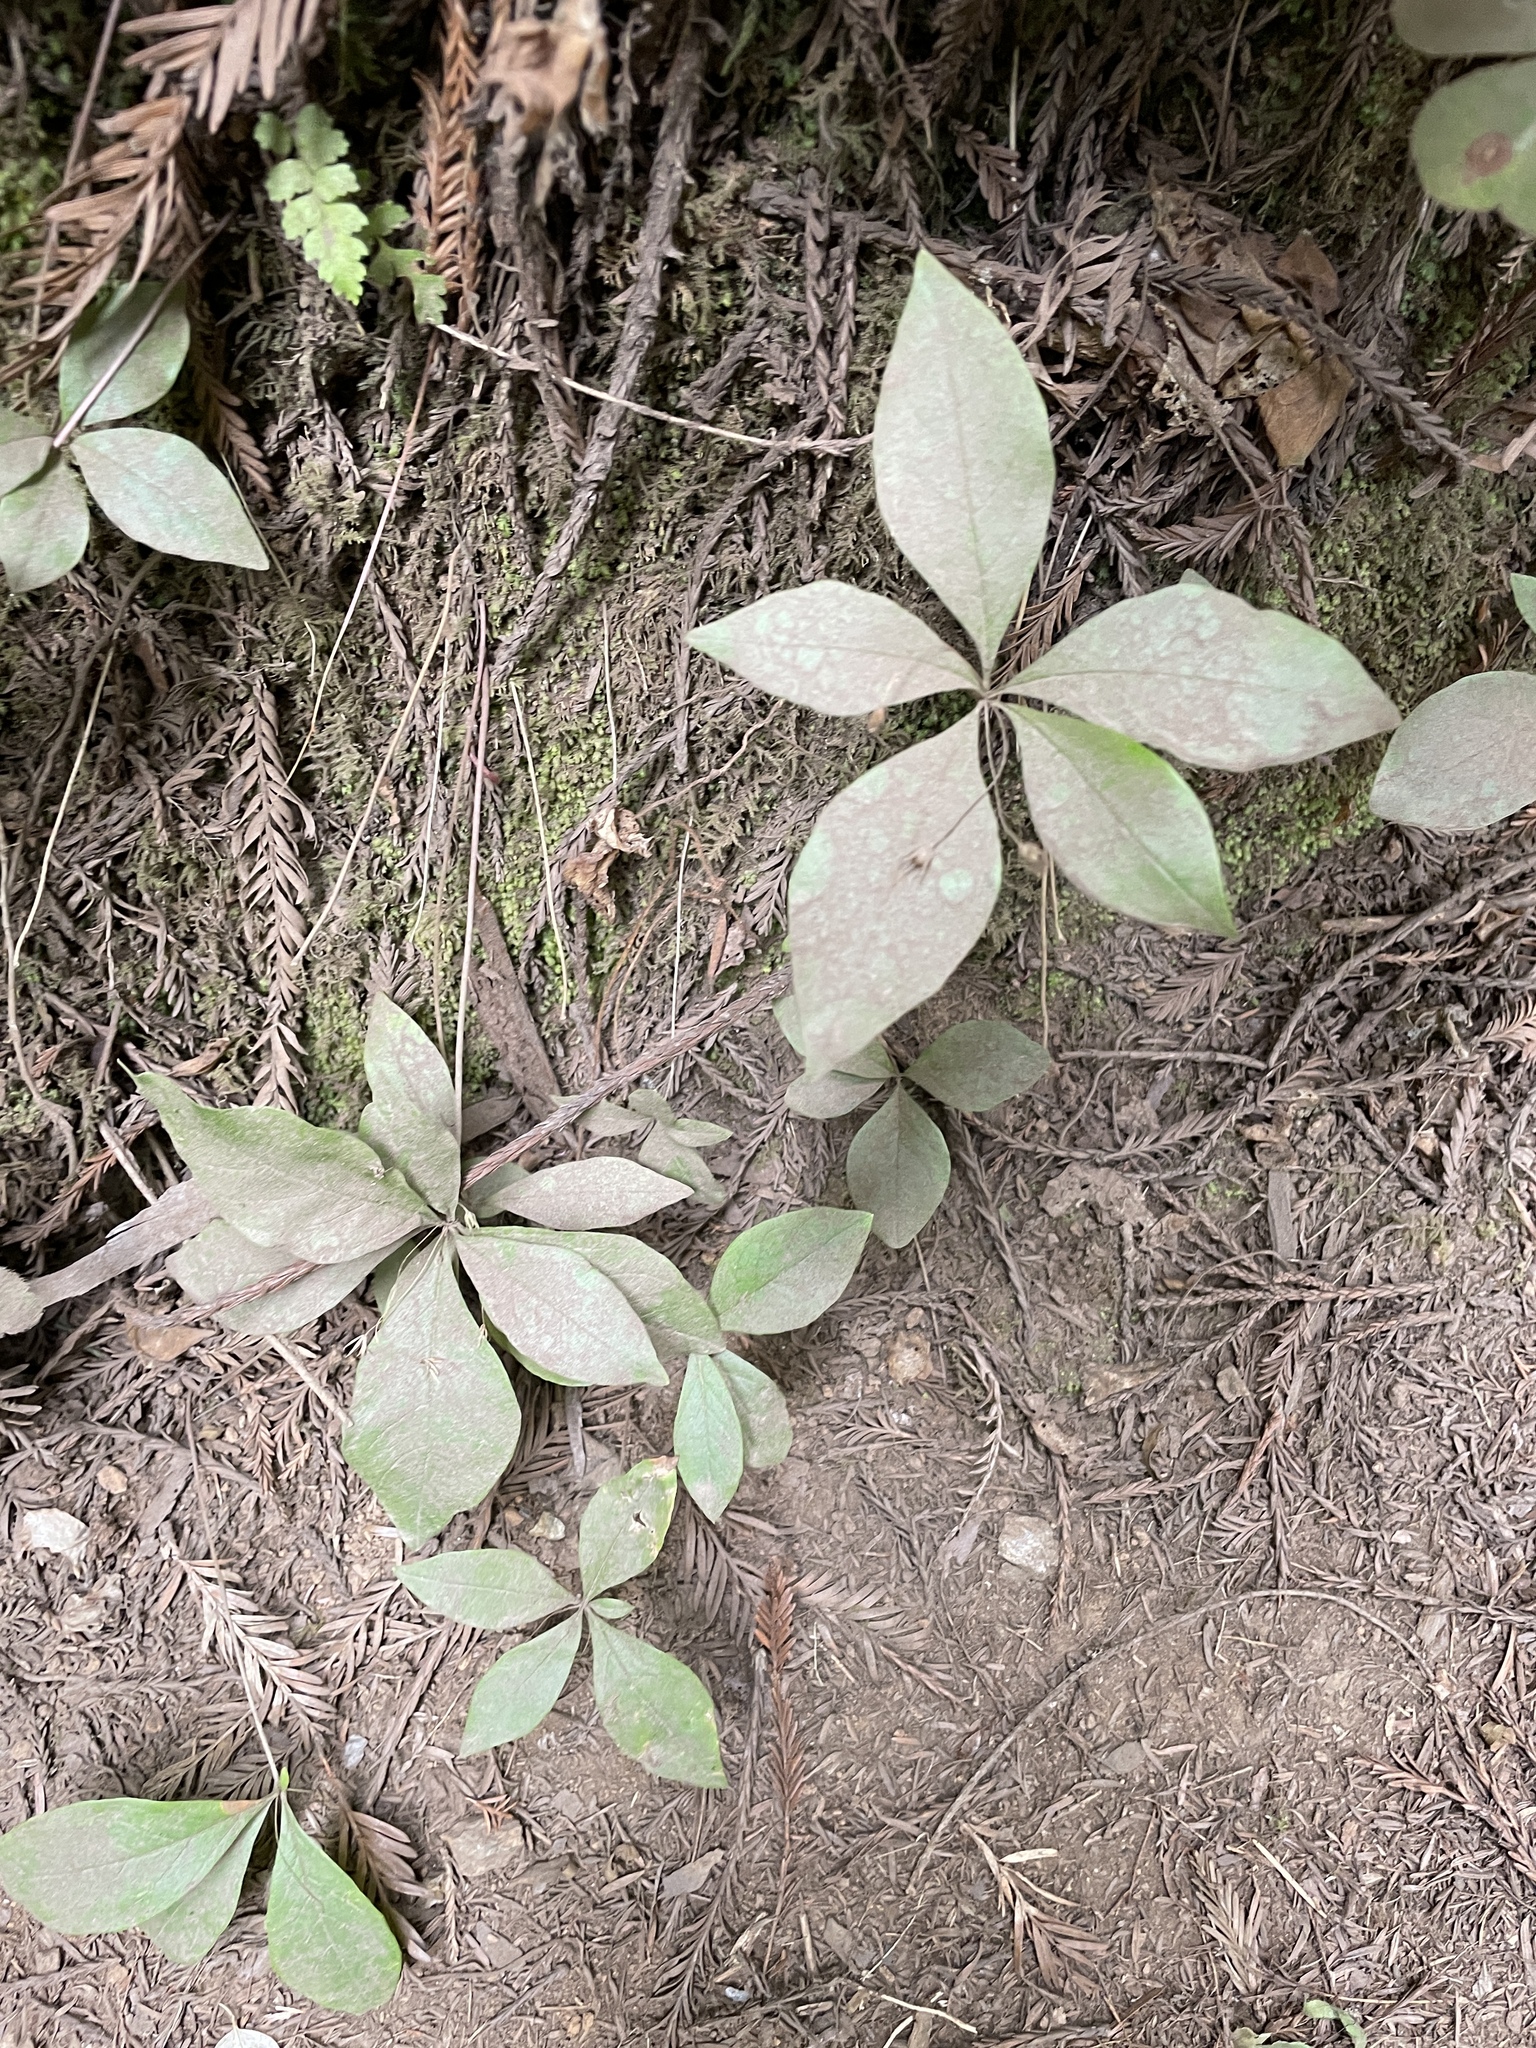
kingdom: Plantae
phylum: Tracheophyta
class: Magnoliopsida
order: Ericales
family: Primulaceae
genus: Lysimachia
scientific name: Lysimachia latifolia
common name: Pacific starflower
